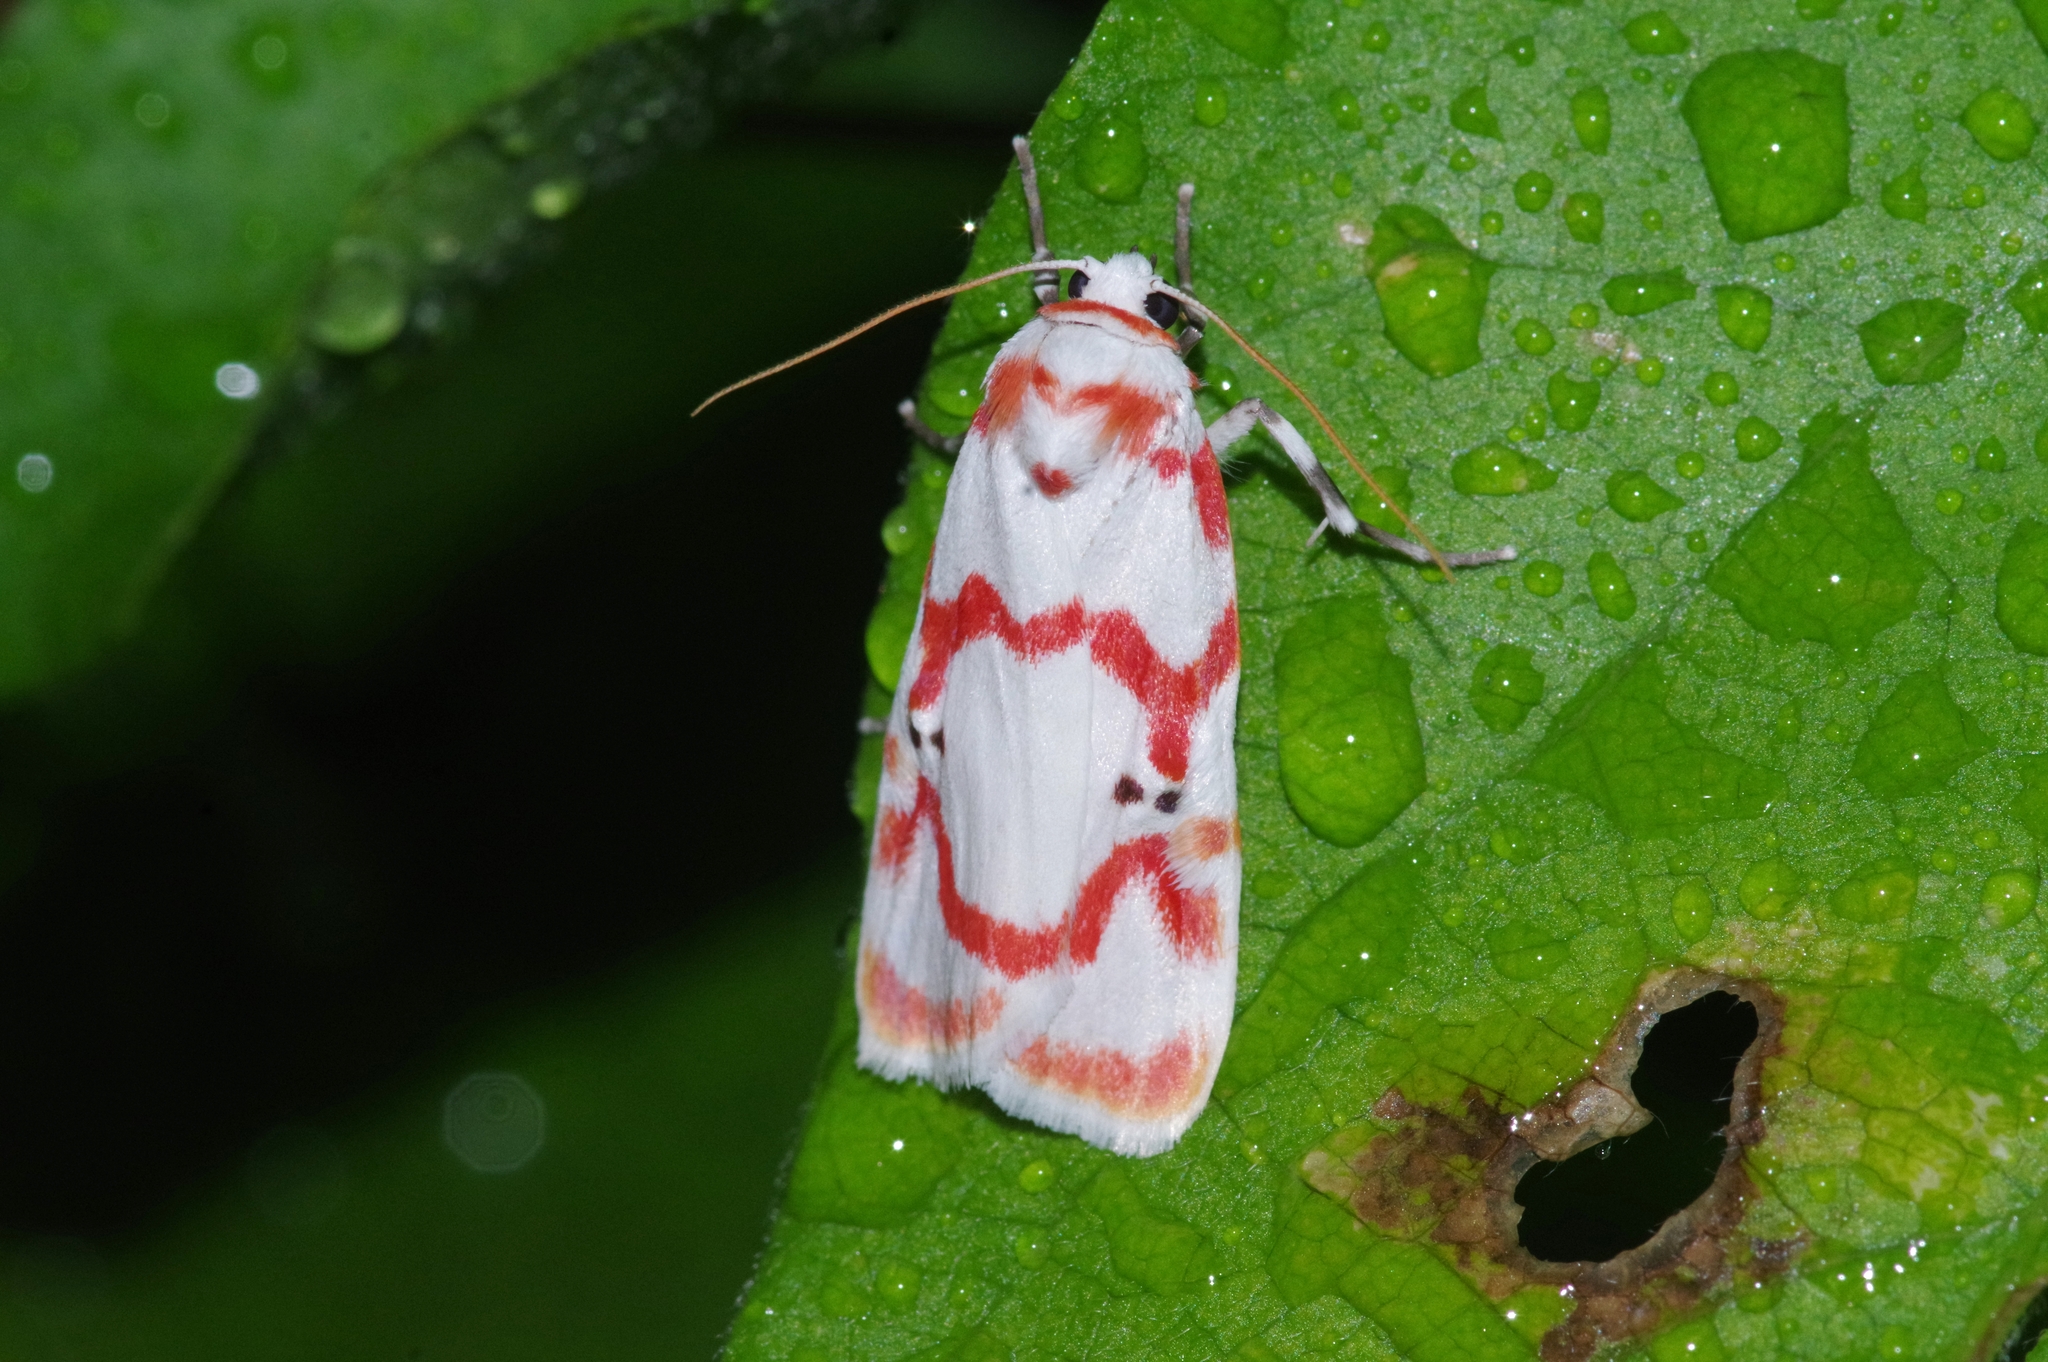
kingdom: Animalia
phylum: Arthropoda
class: Insecta
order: Lepidoptera
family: Erebidae
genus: Cyana
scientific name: Cyana hamata
